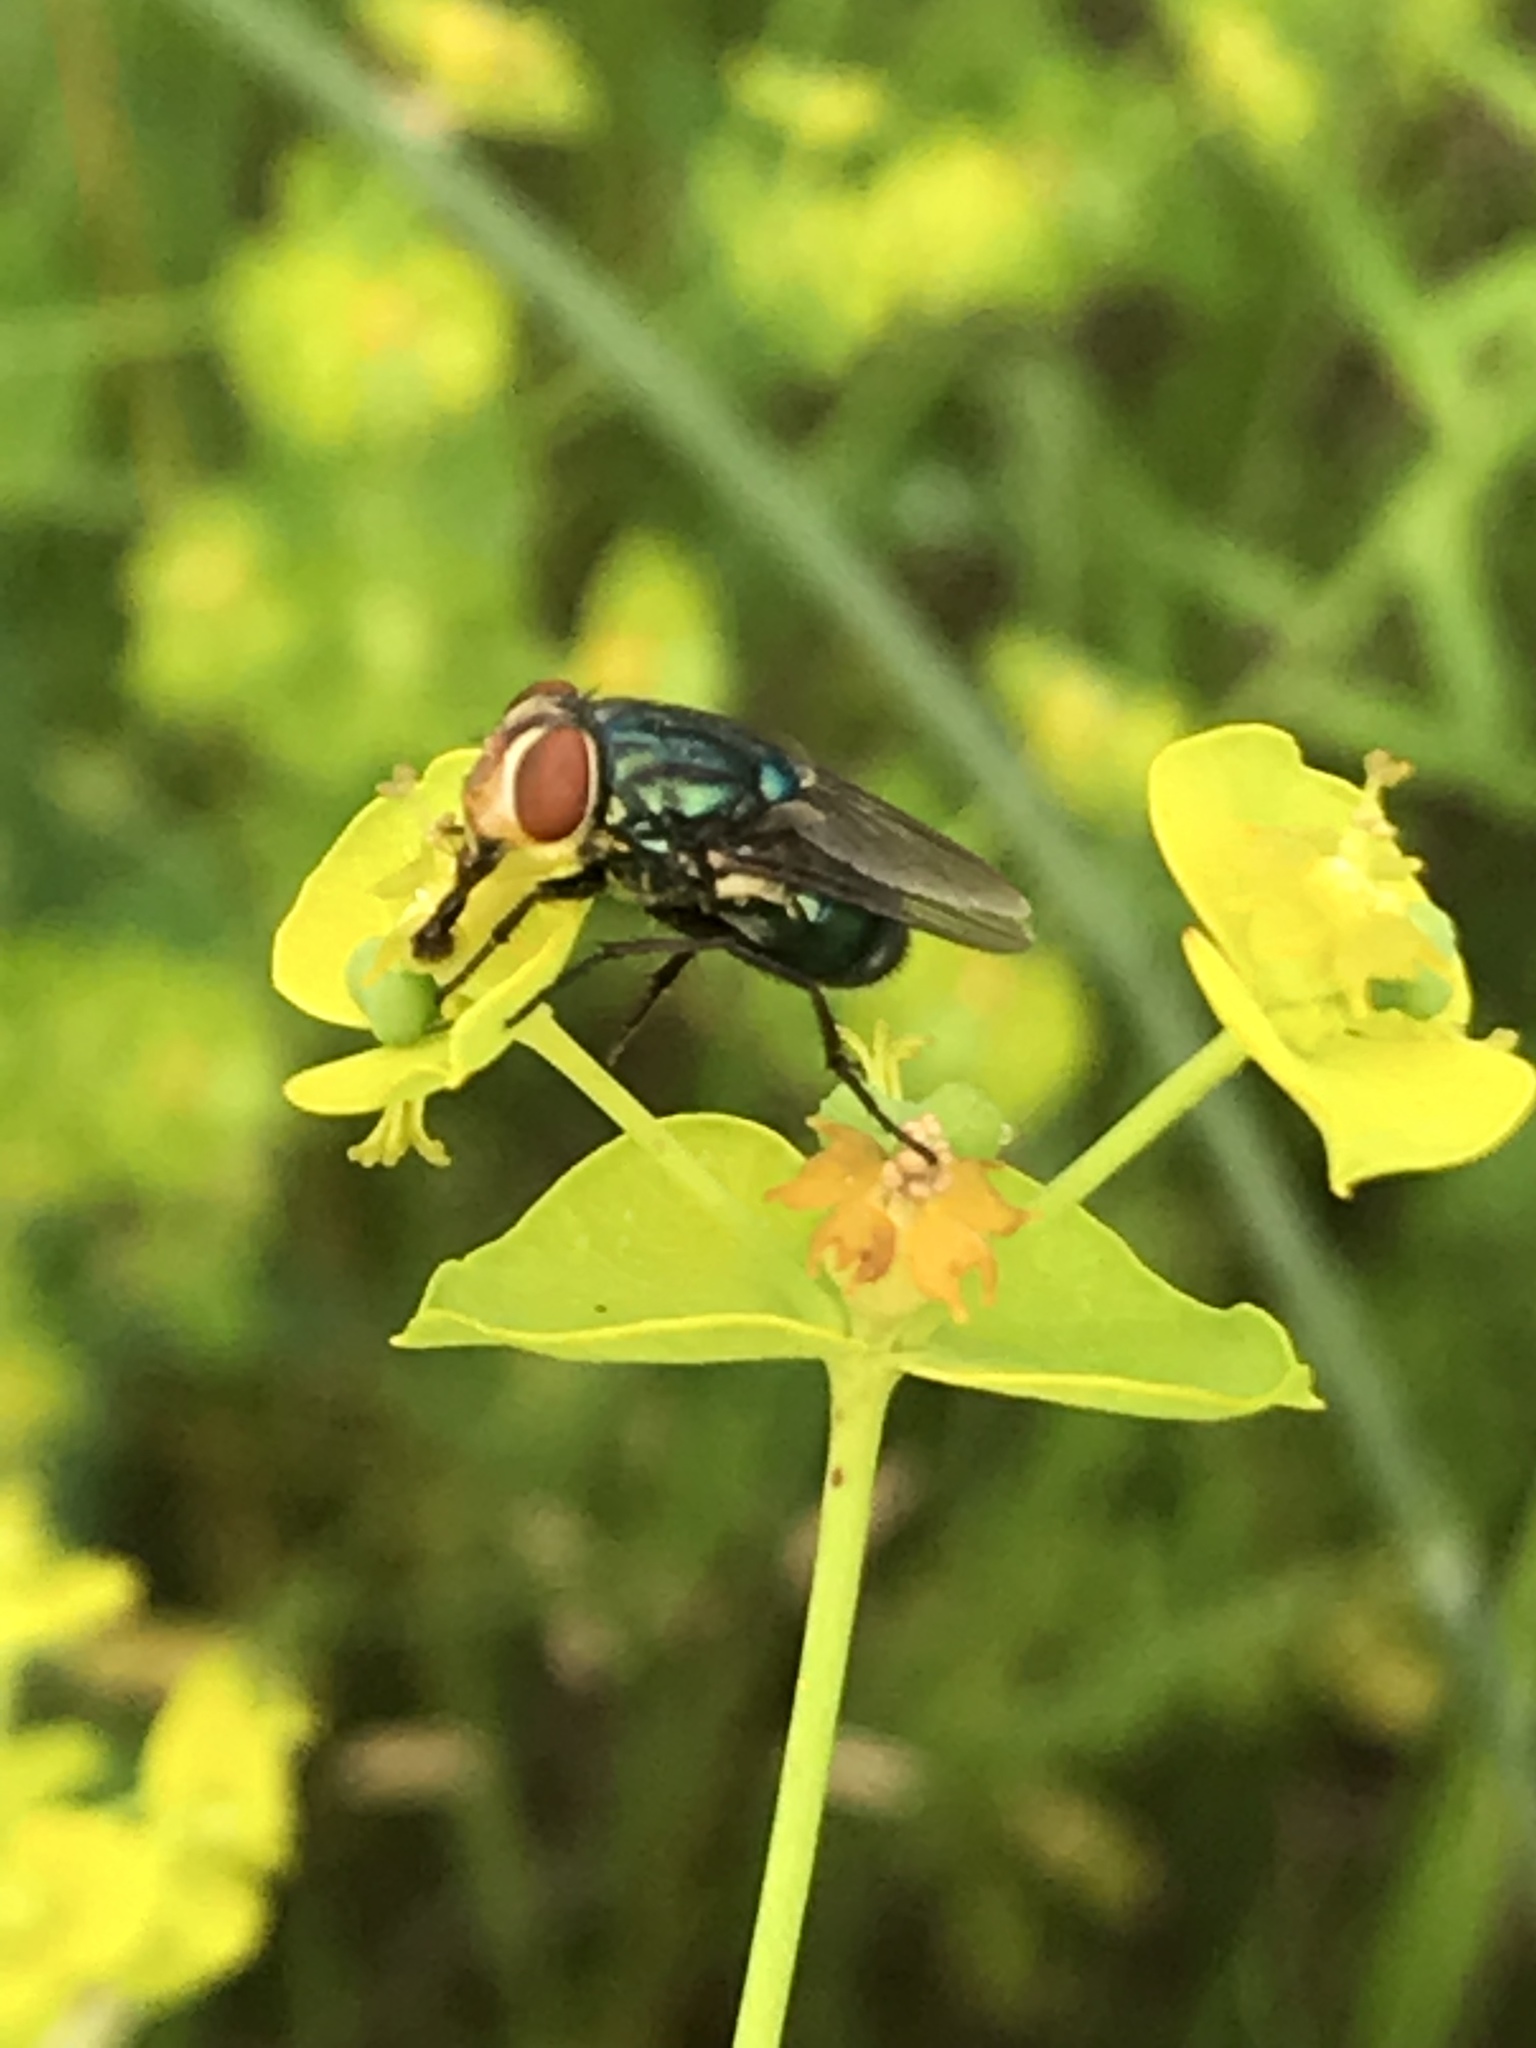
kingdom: Animalia
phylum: Arthropoda
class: Insecta
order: Diptera
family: Calliphoridae
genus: Cochliomyia
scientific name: Cochliomyia macellaria
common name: Secondary screwworm
